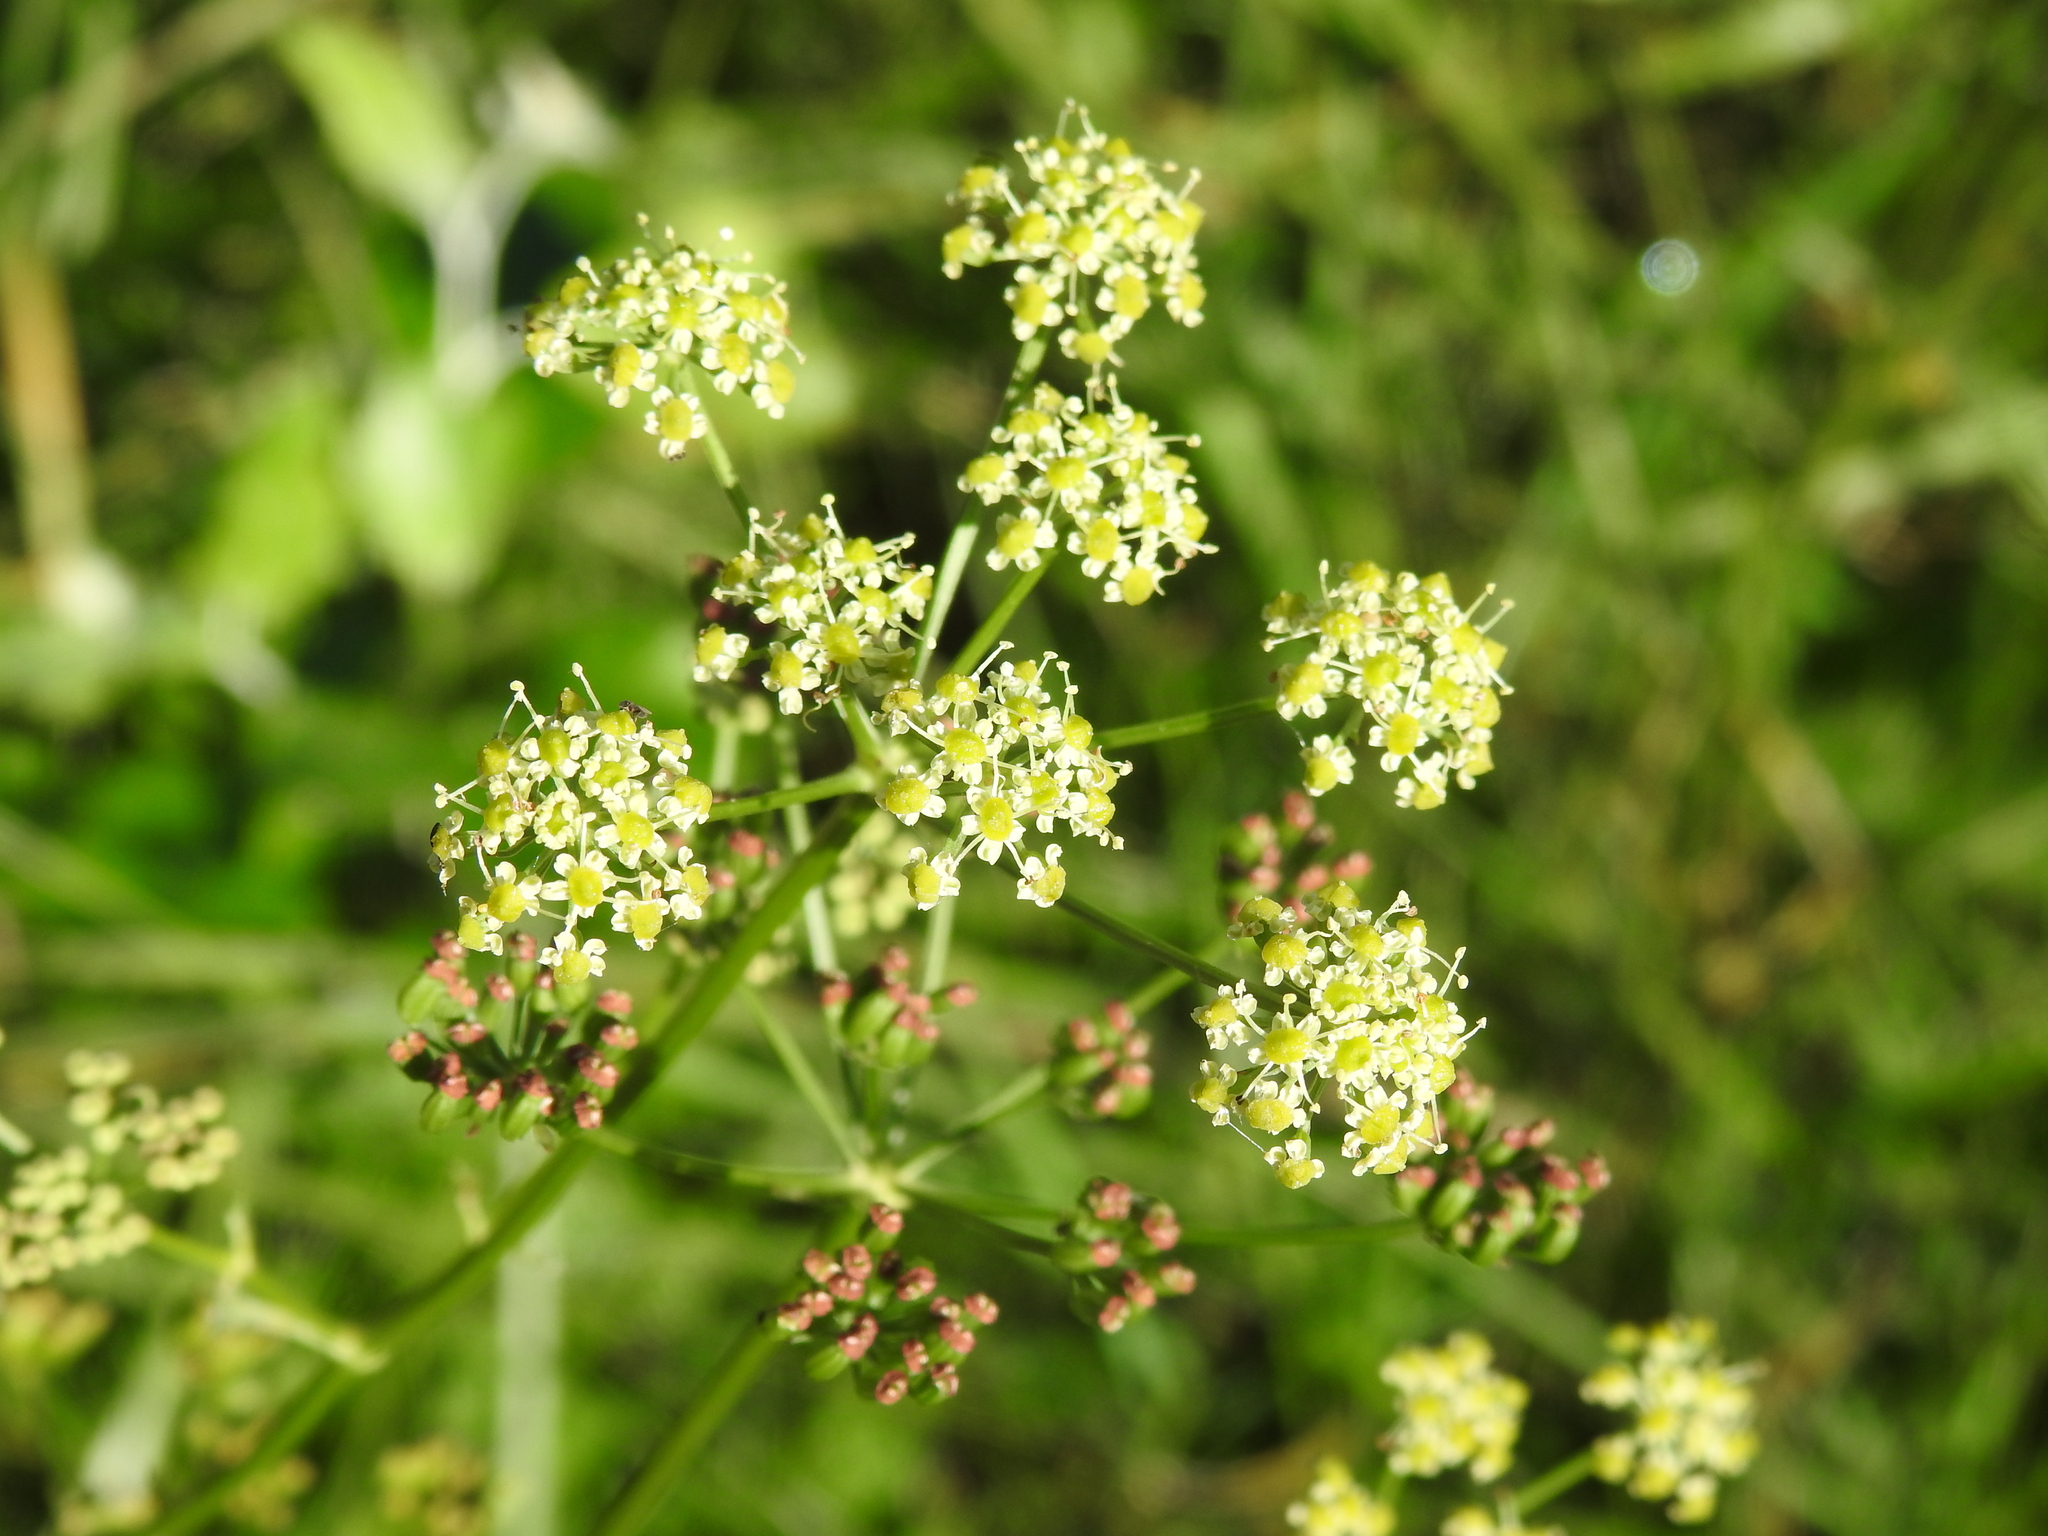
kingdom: Plantae
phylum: Tracheophyta
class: Magnoliopsida
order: Apiales
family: Apiaceae
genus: Silaum
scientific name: Silaum silaus
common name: Pepper-saxifrage
